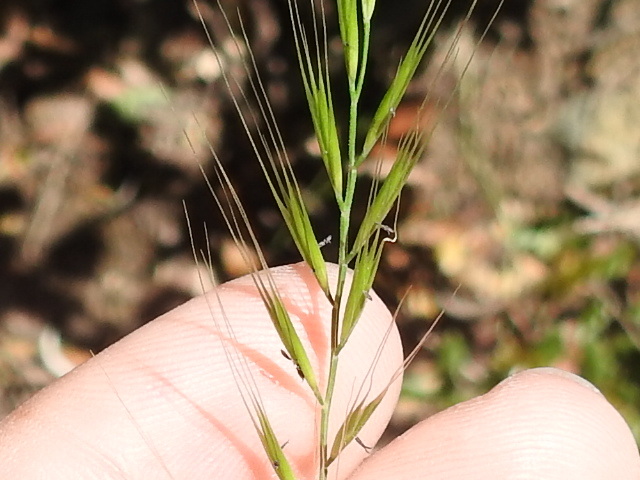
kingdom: Plantae
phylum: Tracheophyta
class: Liliopsida
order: Poales
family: Poaceae
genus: Festuca
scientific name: Festuca bromoides
